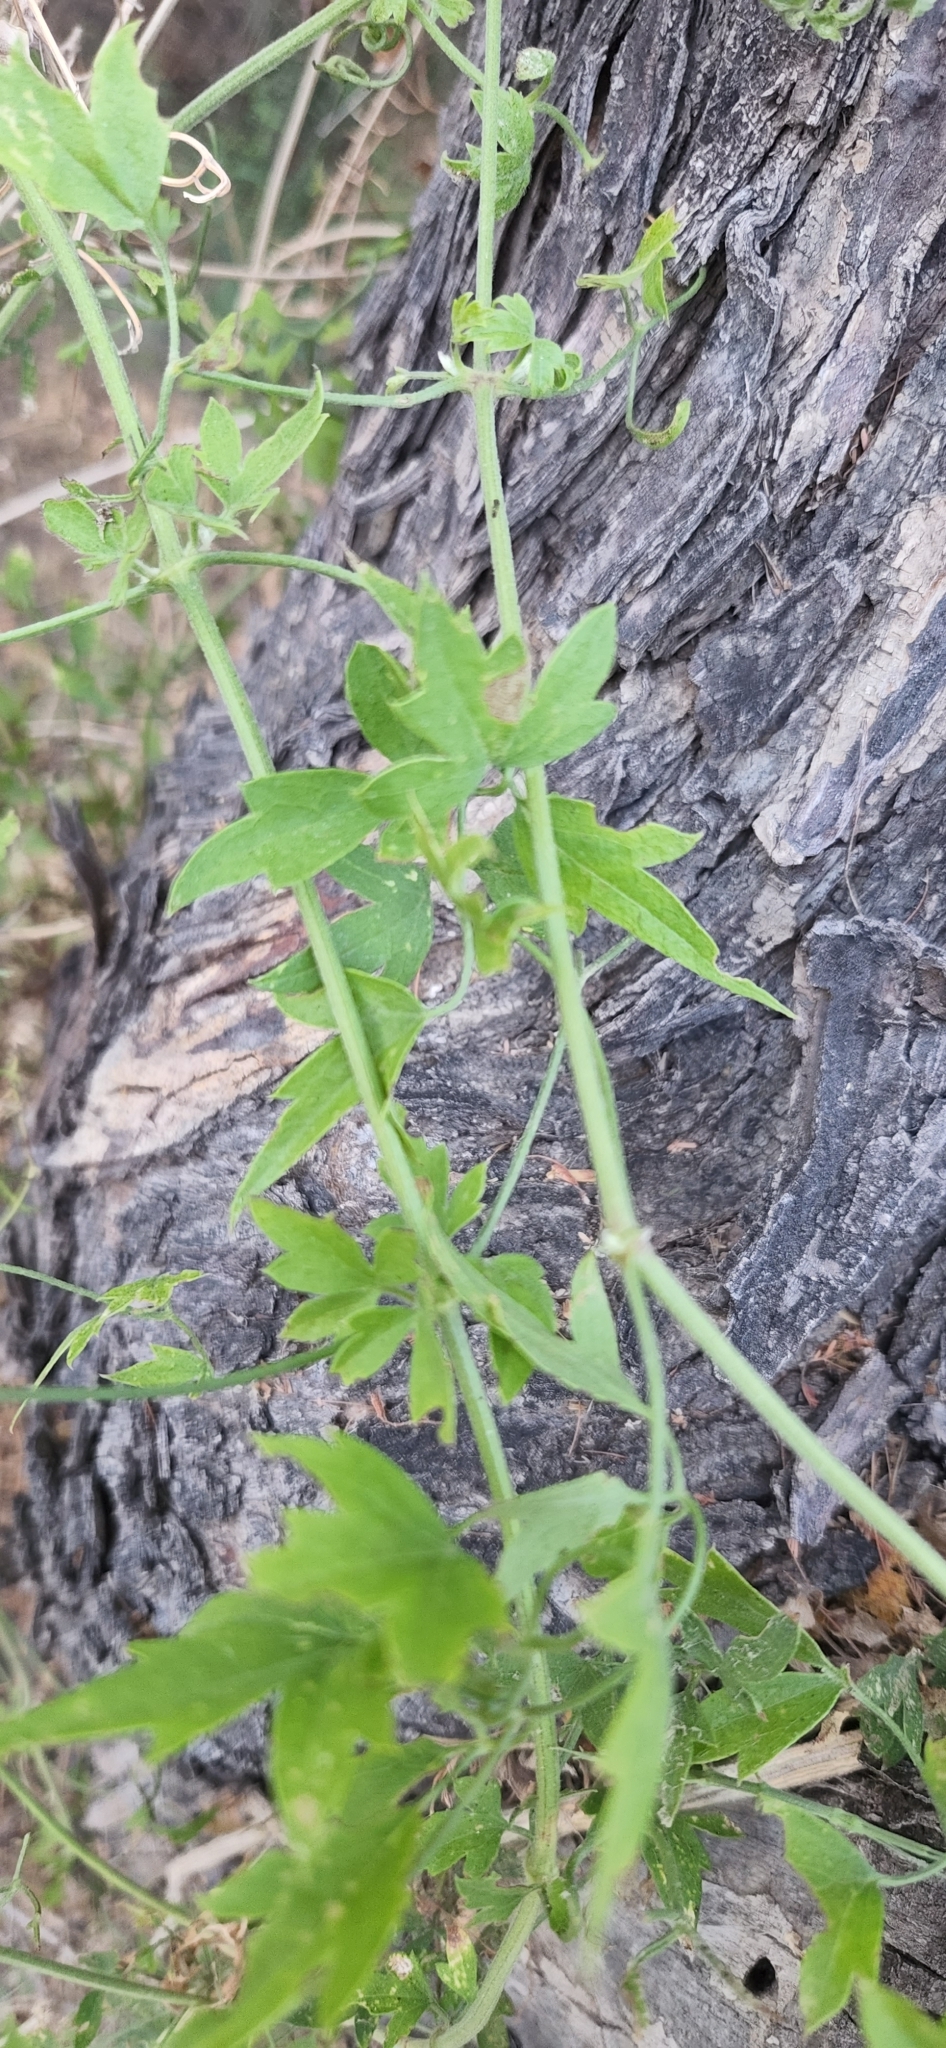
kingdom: Plantae
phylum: Tracheophyta
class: Magnoliopsida
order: Ranunculales
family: Ranunculaceae
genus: Clematis
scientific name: Clematis drummondii
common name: Texas virgin's bower
